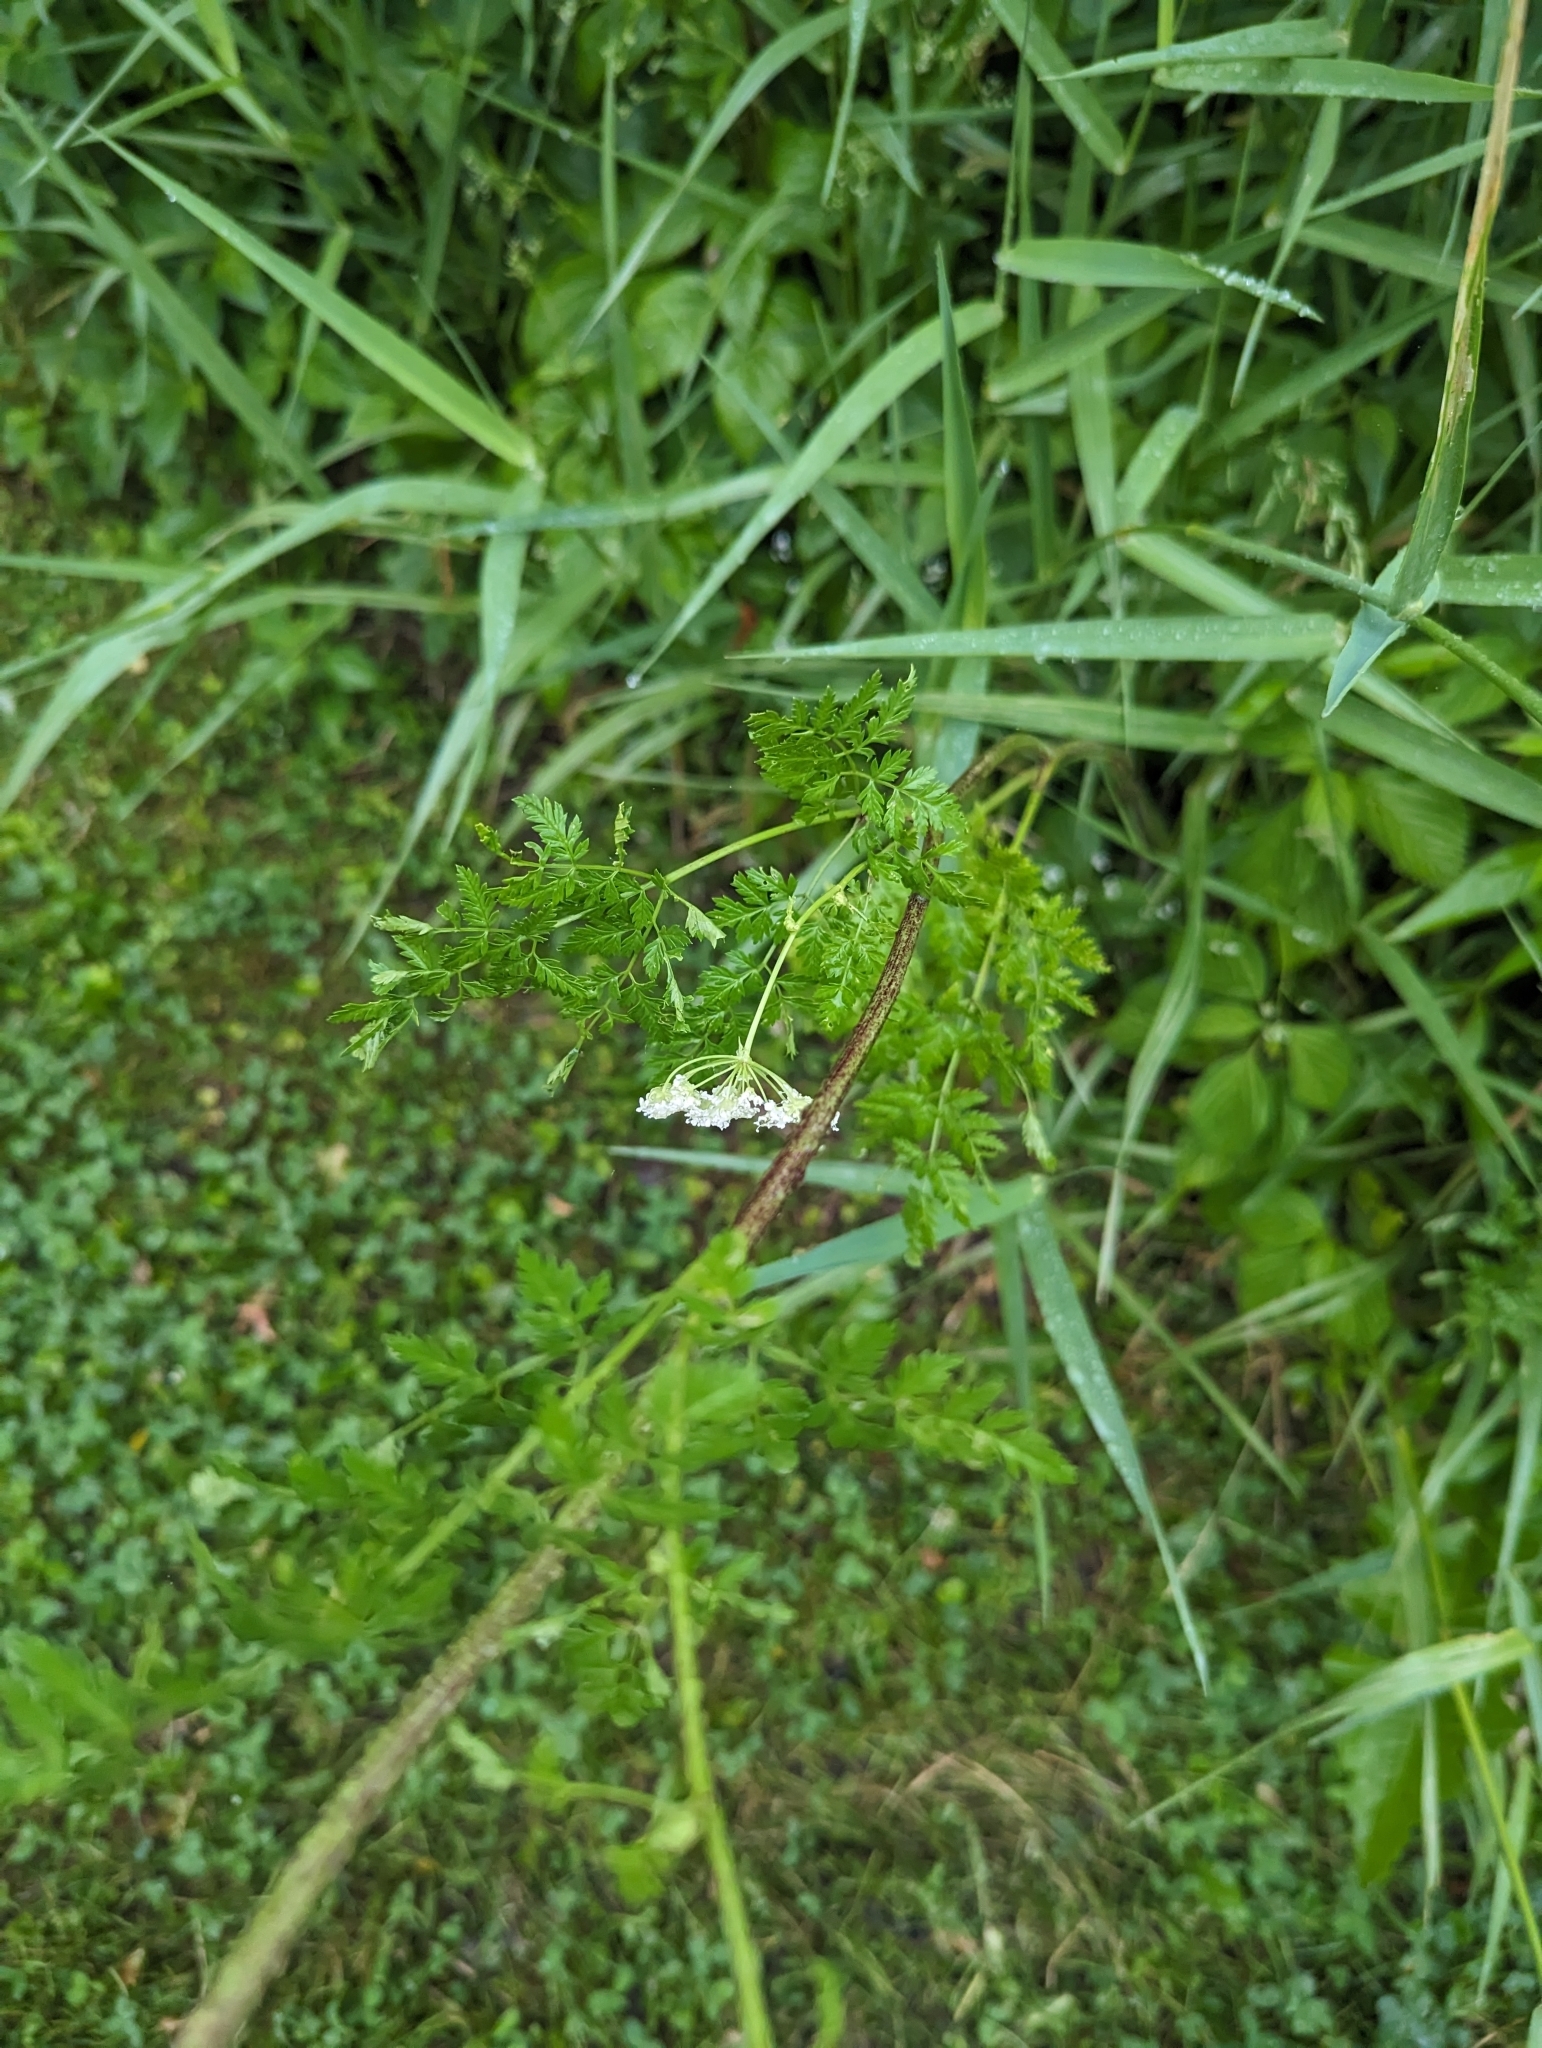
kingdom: Plantae
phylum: Tracheophyta
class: Magnoliopsida
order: Apiales
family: Apiaceae
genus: Conium
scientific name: Conium maculatum
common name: Hemlock
